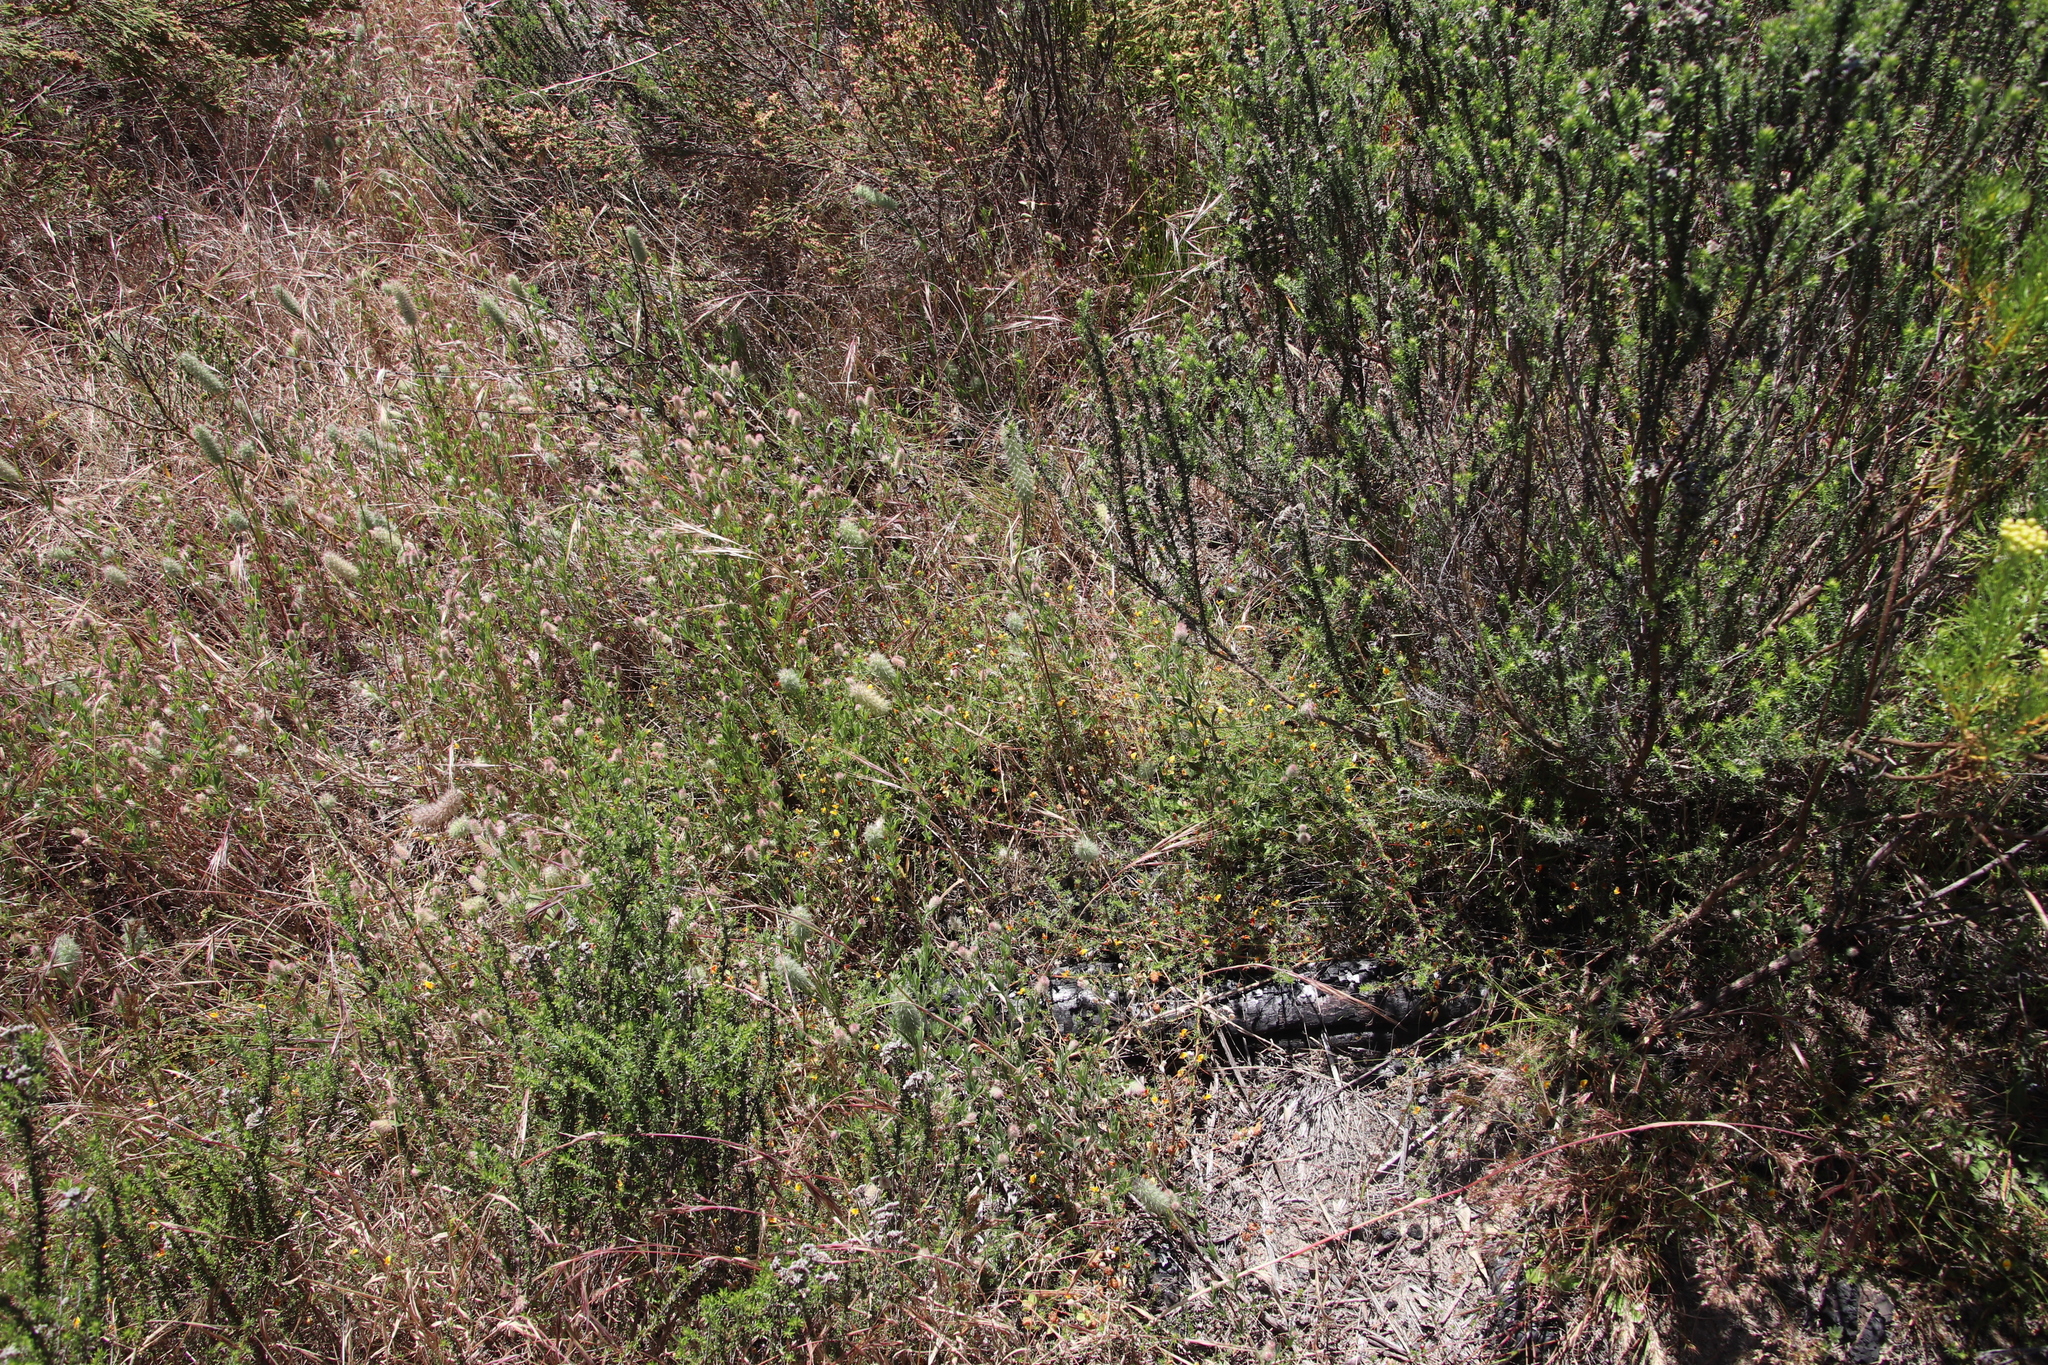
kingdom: Plantae
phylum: Tracheophyta
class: Magnoliopsida
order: Fabales
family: Fabaceae
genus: Aspalathus
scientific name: Aspalathus retroflexa
